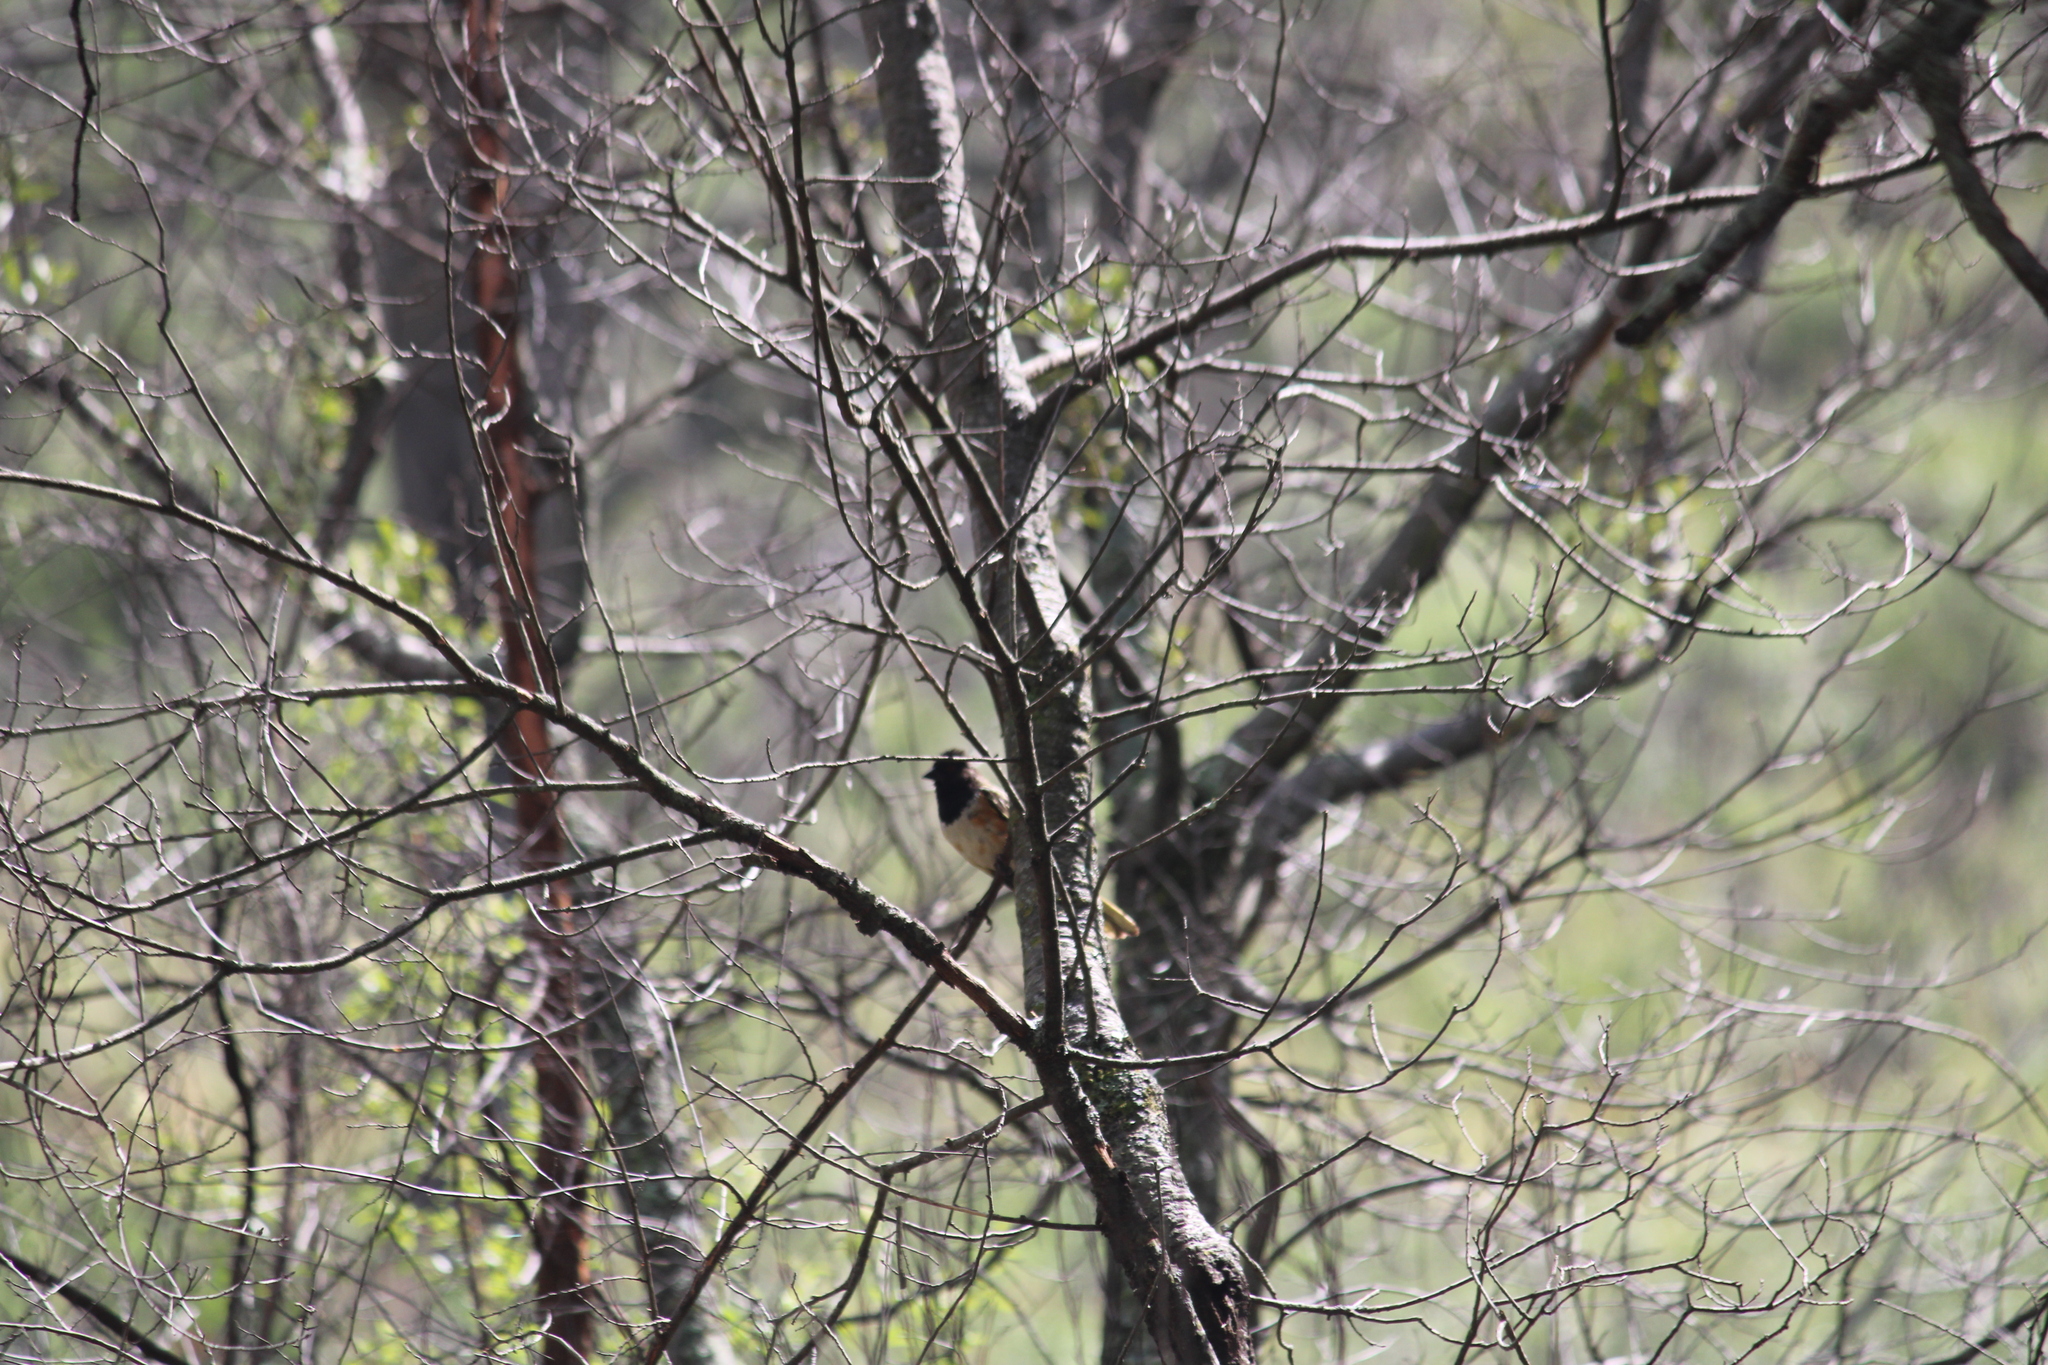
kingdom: Animalia
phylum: Chordata
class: Aves
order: Passeriformes
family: Passerellidae
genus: Pipilo
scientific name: Pipilo maculatus
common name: Spotted towhee
